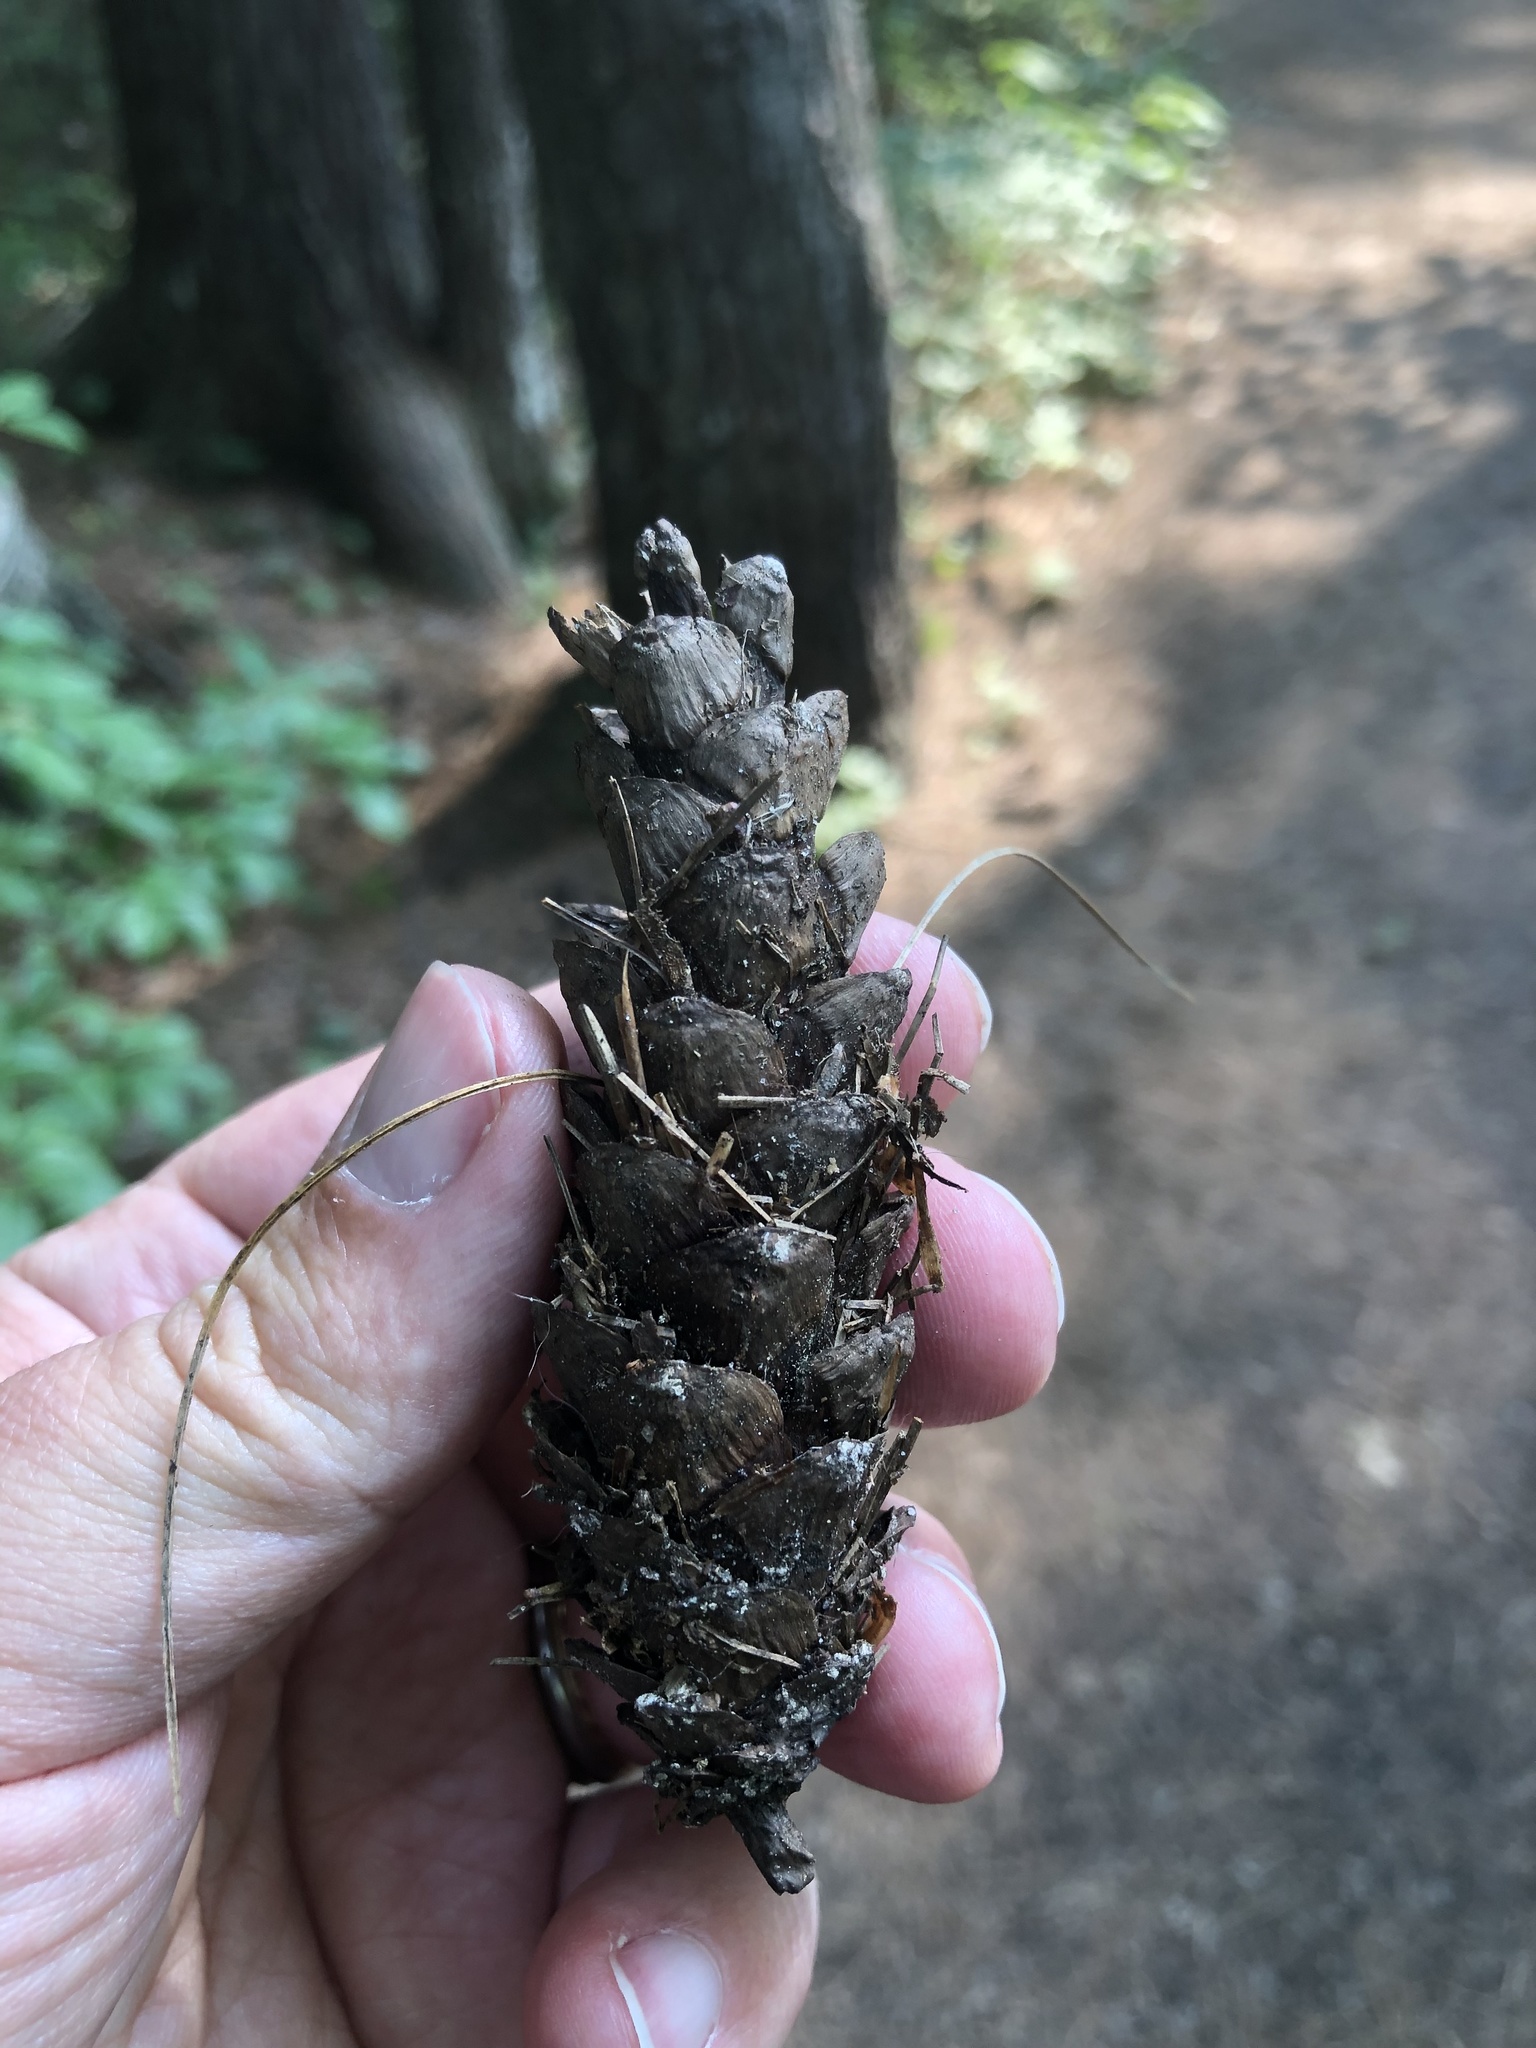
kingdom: Plantae
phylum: Tracheophyta
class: Pinopsida
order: Pinales
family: Pinaceae
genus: Pinus
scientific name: Pinus strobus
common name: Weymouth pine
